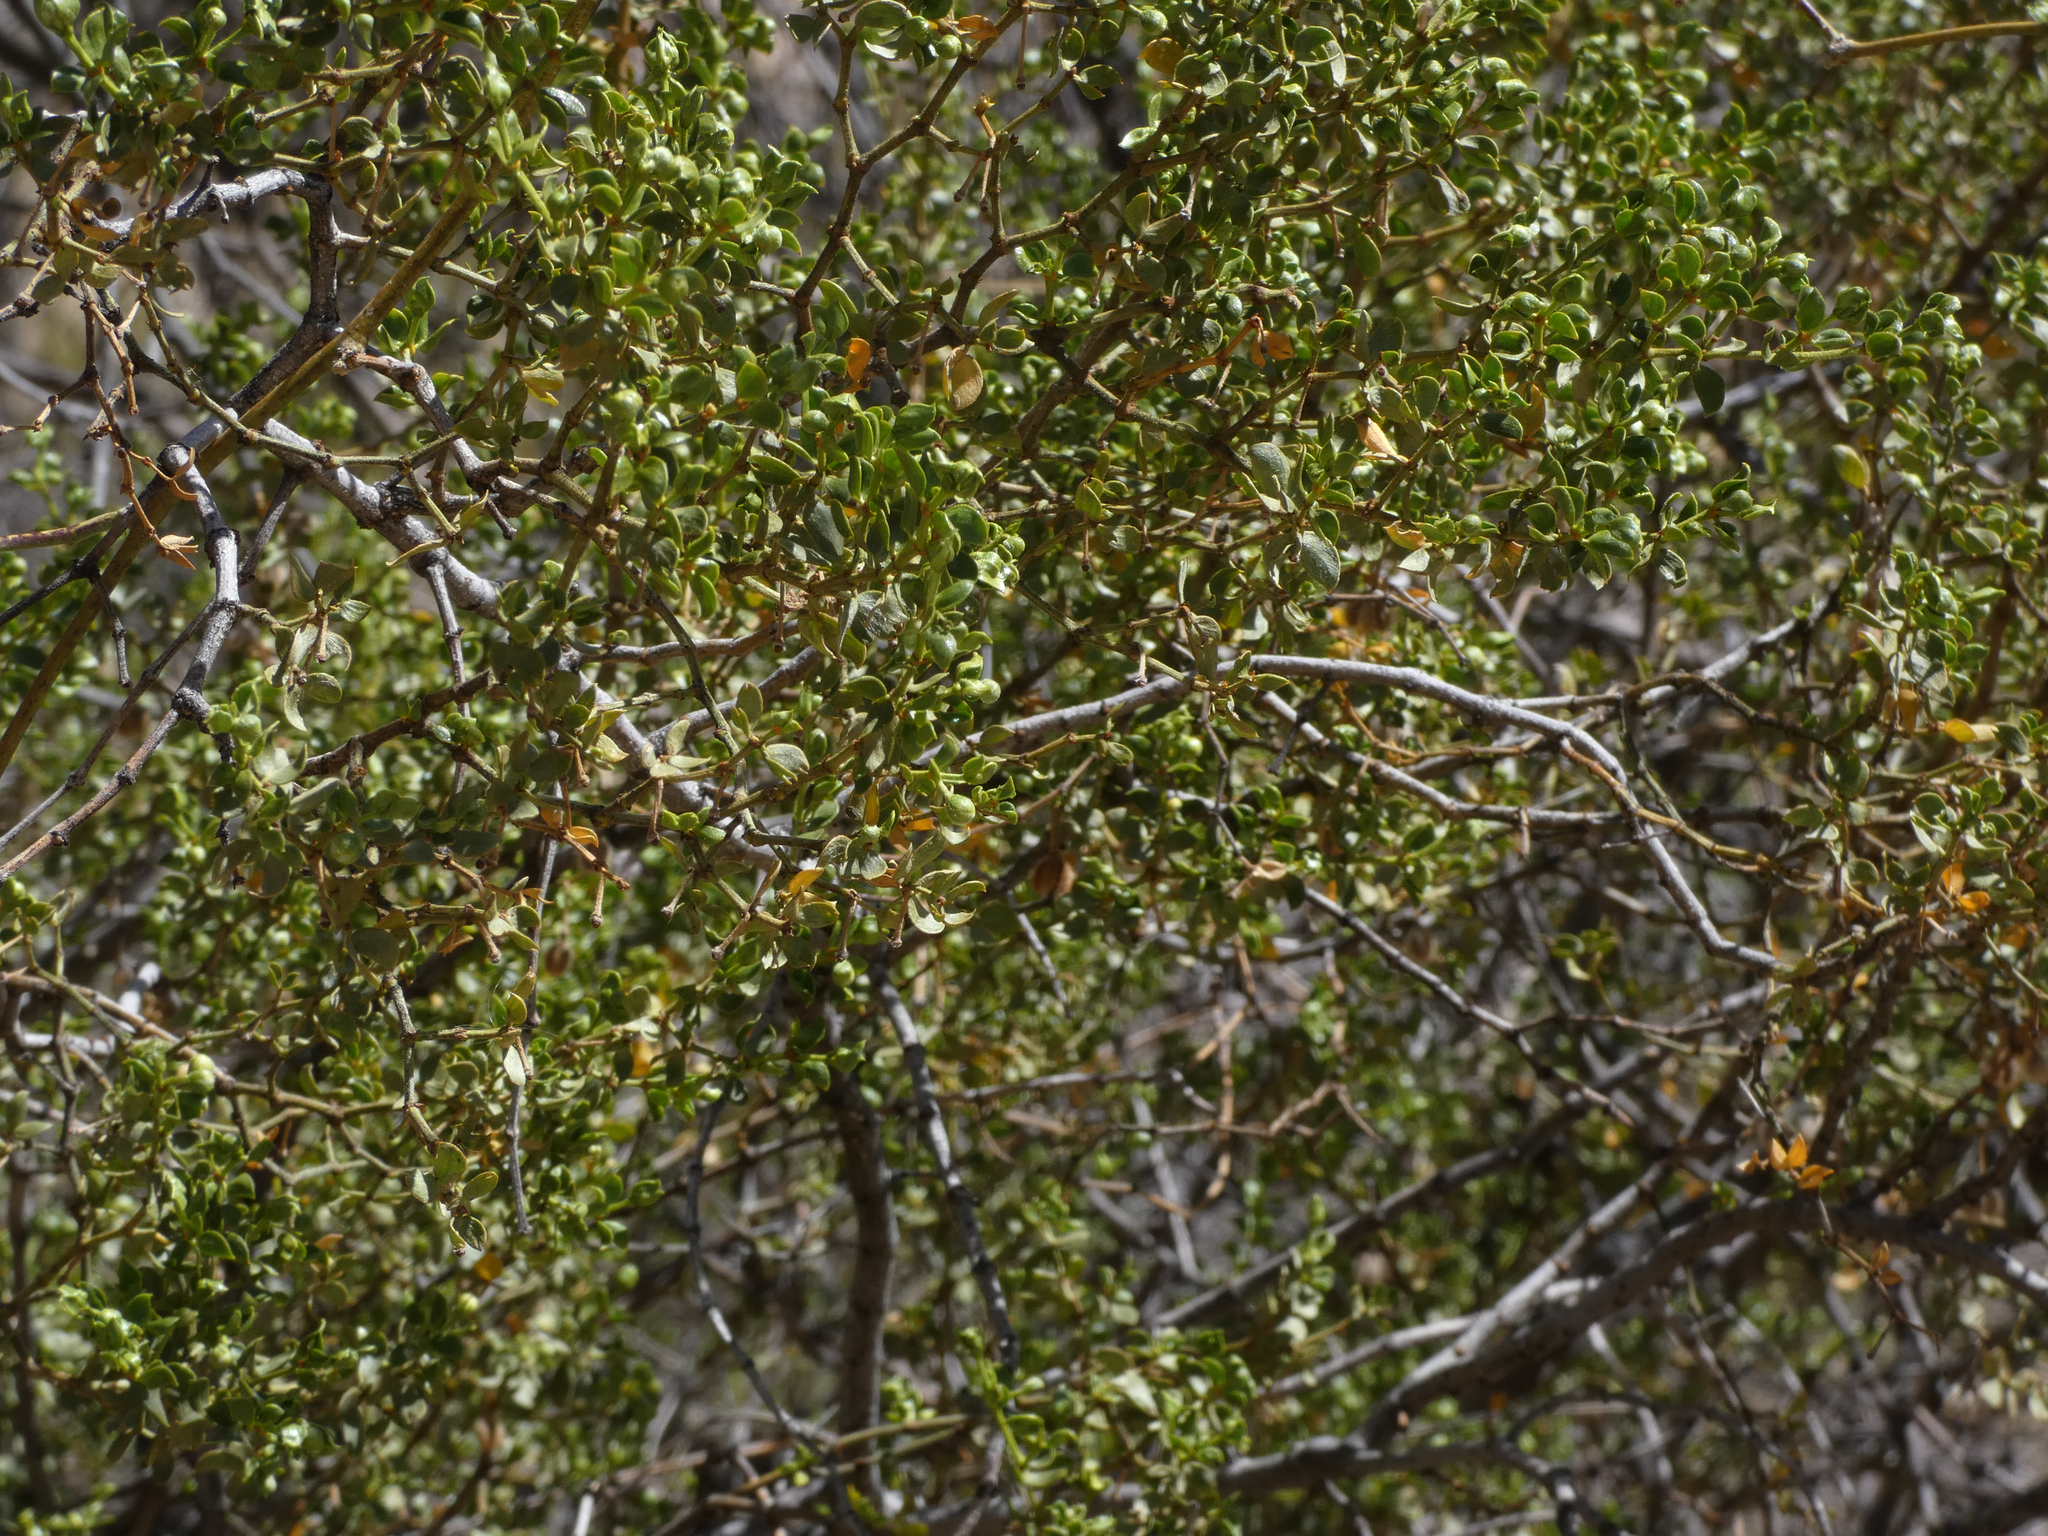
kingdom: Plantae
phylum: Tracheophyta
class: Magnoliopsida
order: Zygophyllales
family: Zygophyllaceae
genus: Larrea
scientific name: Larrea tridentata
